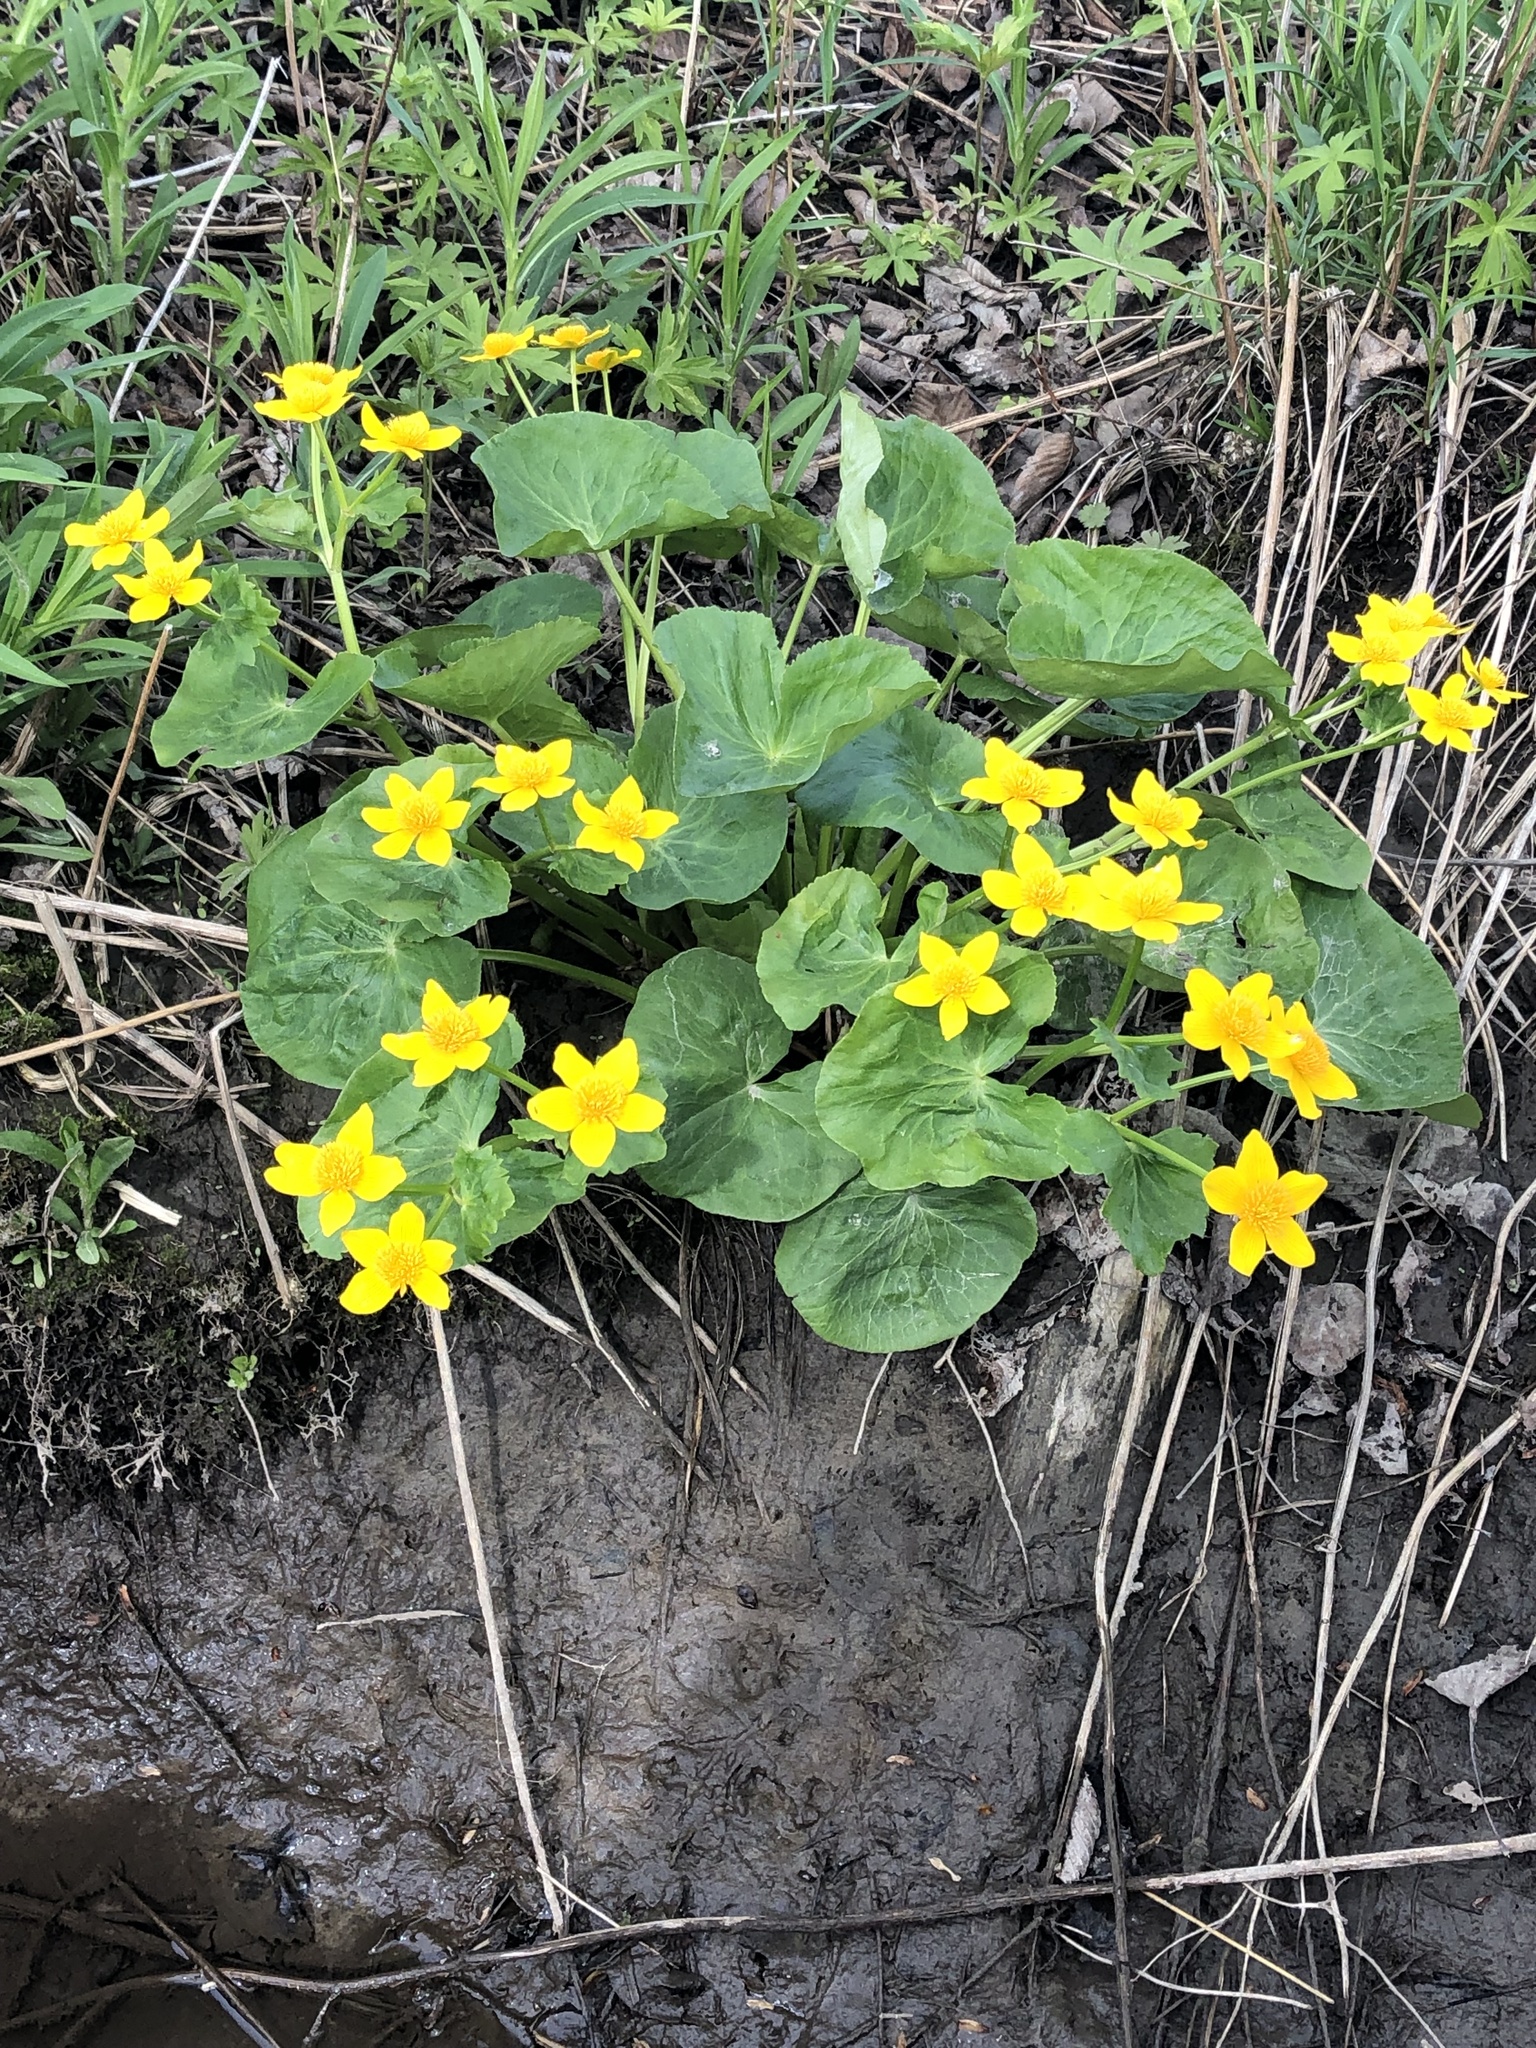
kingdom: Plantae
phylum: Tracheophyta
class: Magnoliopsida
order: Ranunculales
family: Ranunculaceae
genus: Caltha
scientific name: Caltha palustris
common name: Marsh marigold
